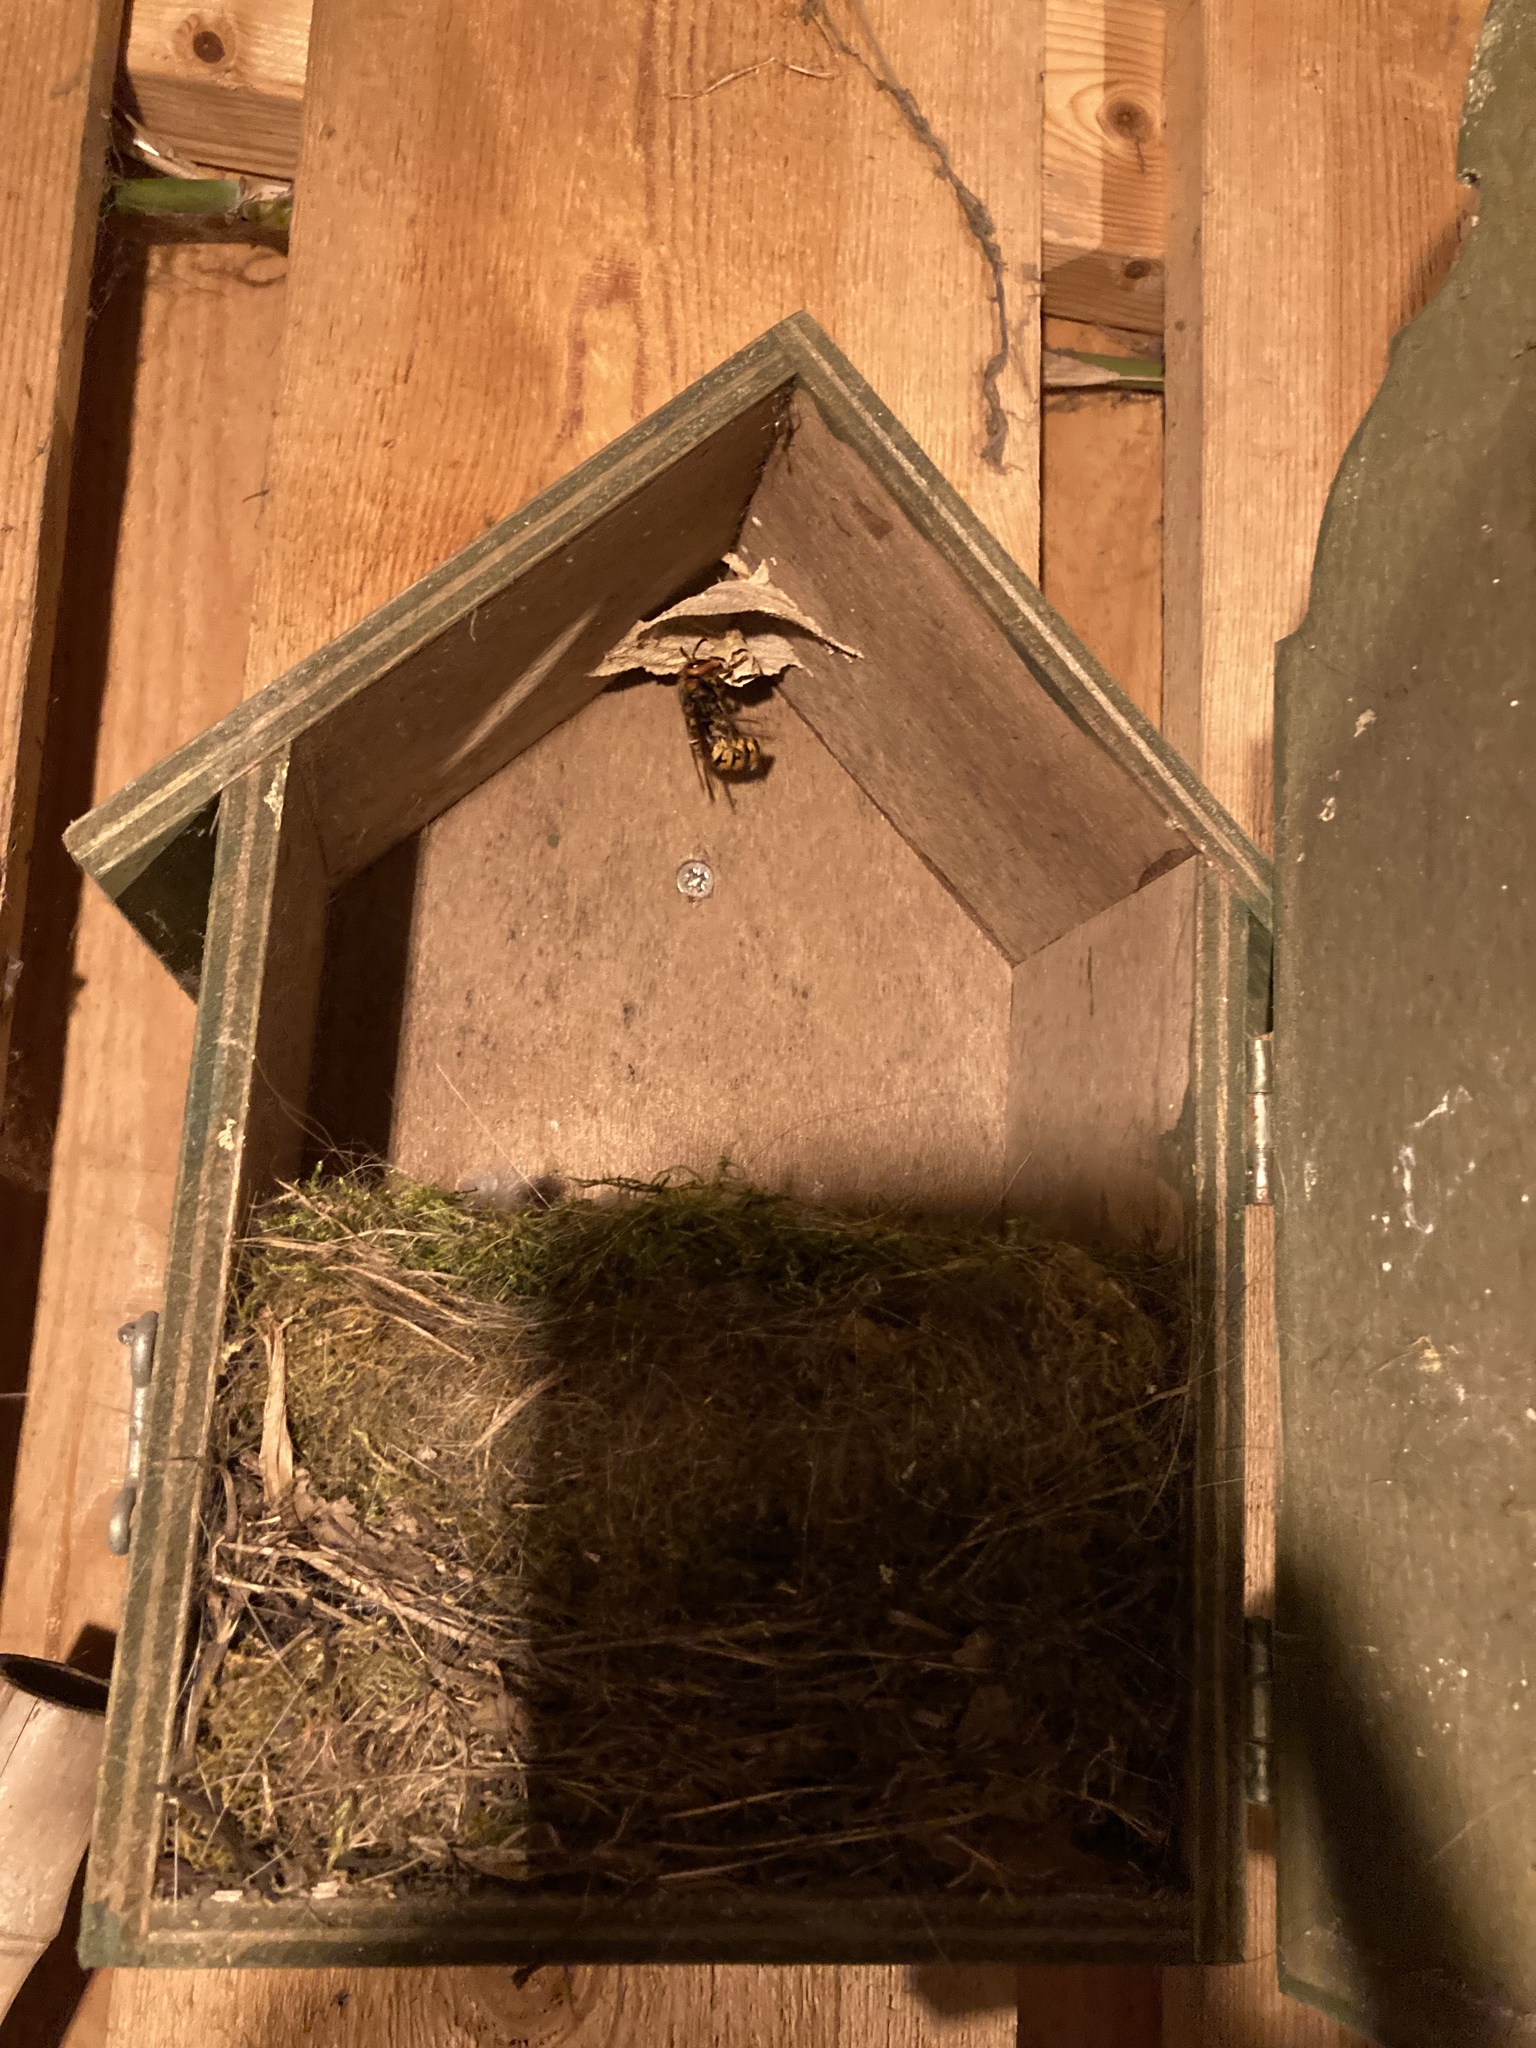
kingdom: Animalia
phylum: Arthropoda
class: Insecta
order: Hymenoptera
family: Vespidae
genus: Vespa
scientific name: Vespa crabro
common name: Hornet
